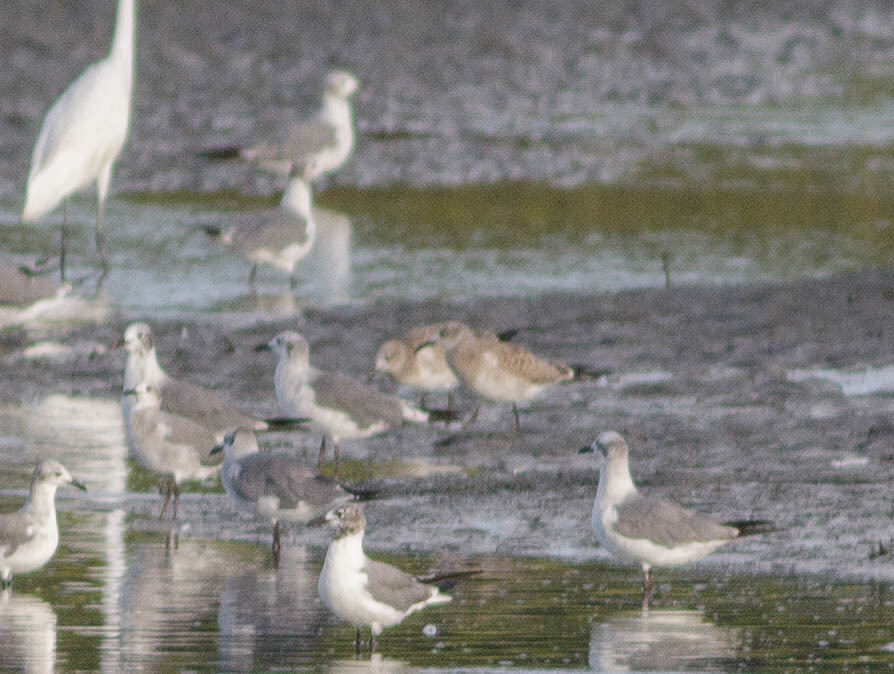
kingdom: Animalia
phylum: Chordata
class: Aves
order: Charadriiformes
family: Laridae
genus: Leucophaeus
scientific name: Leucophaeus atricilla
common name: Laughing gull
